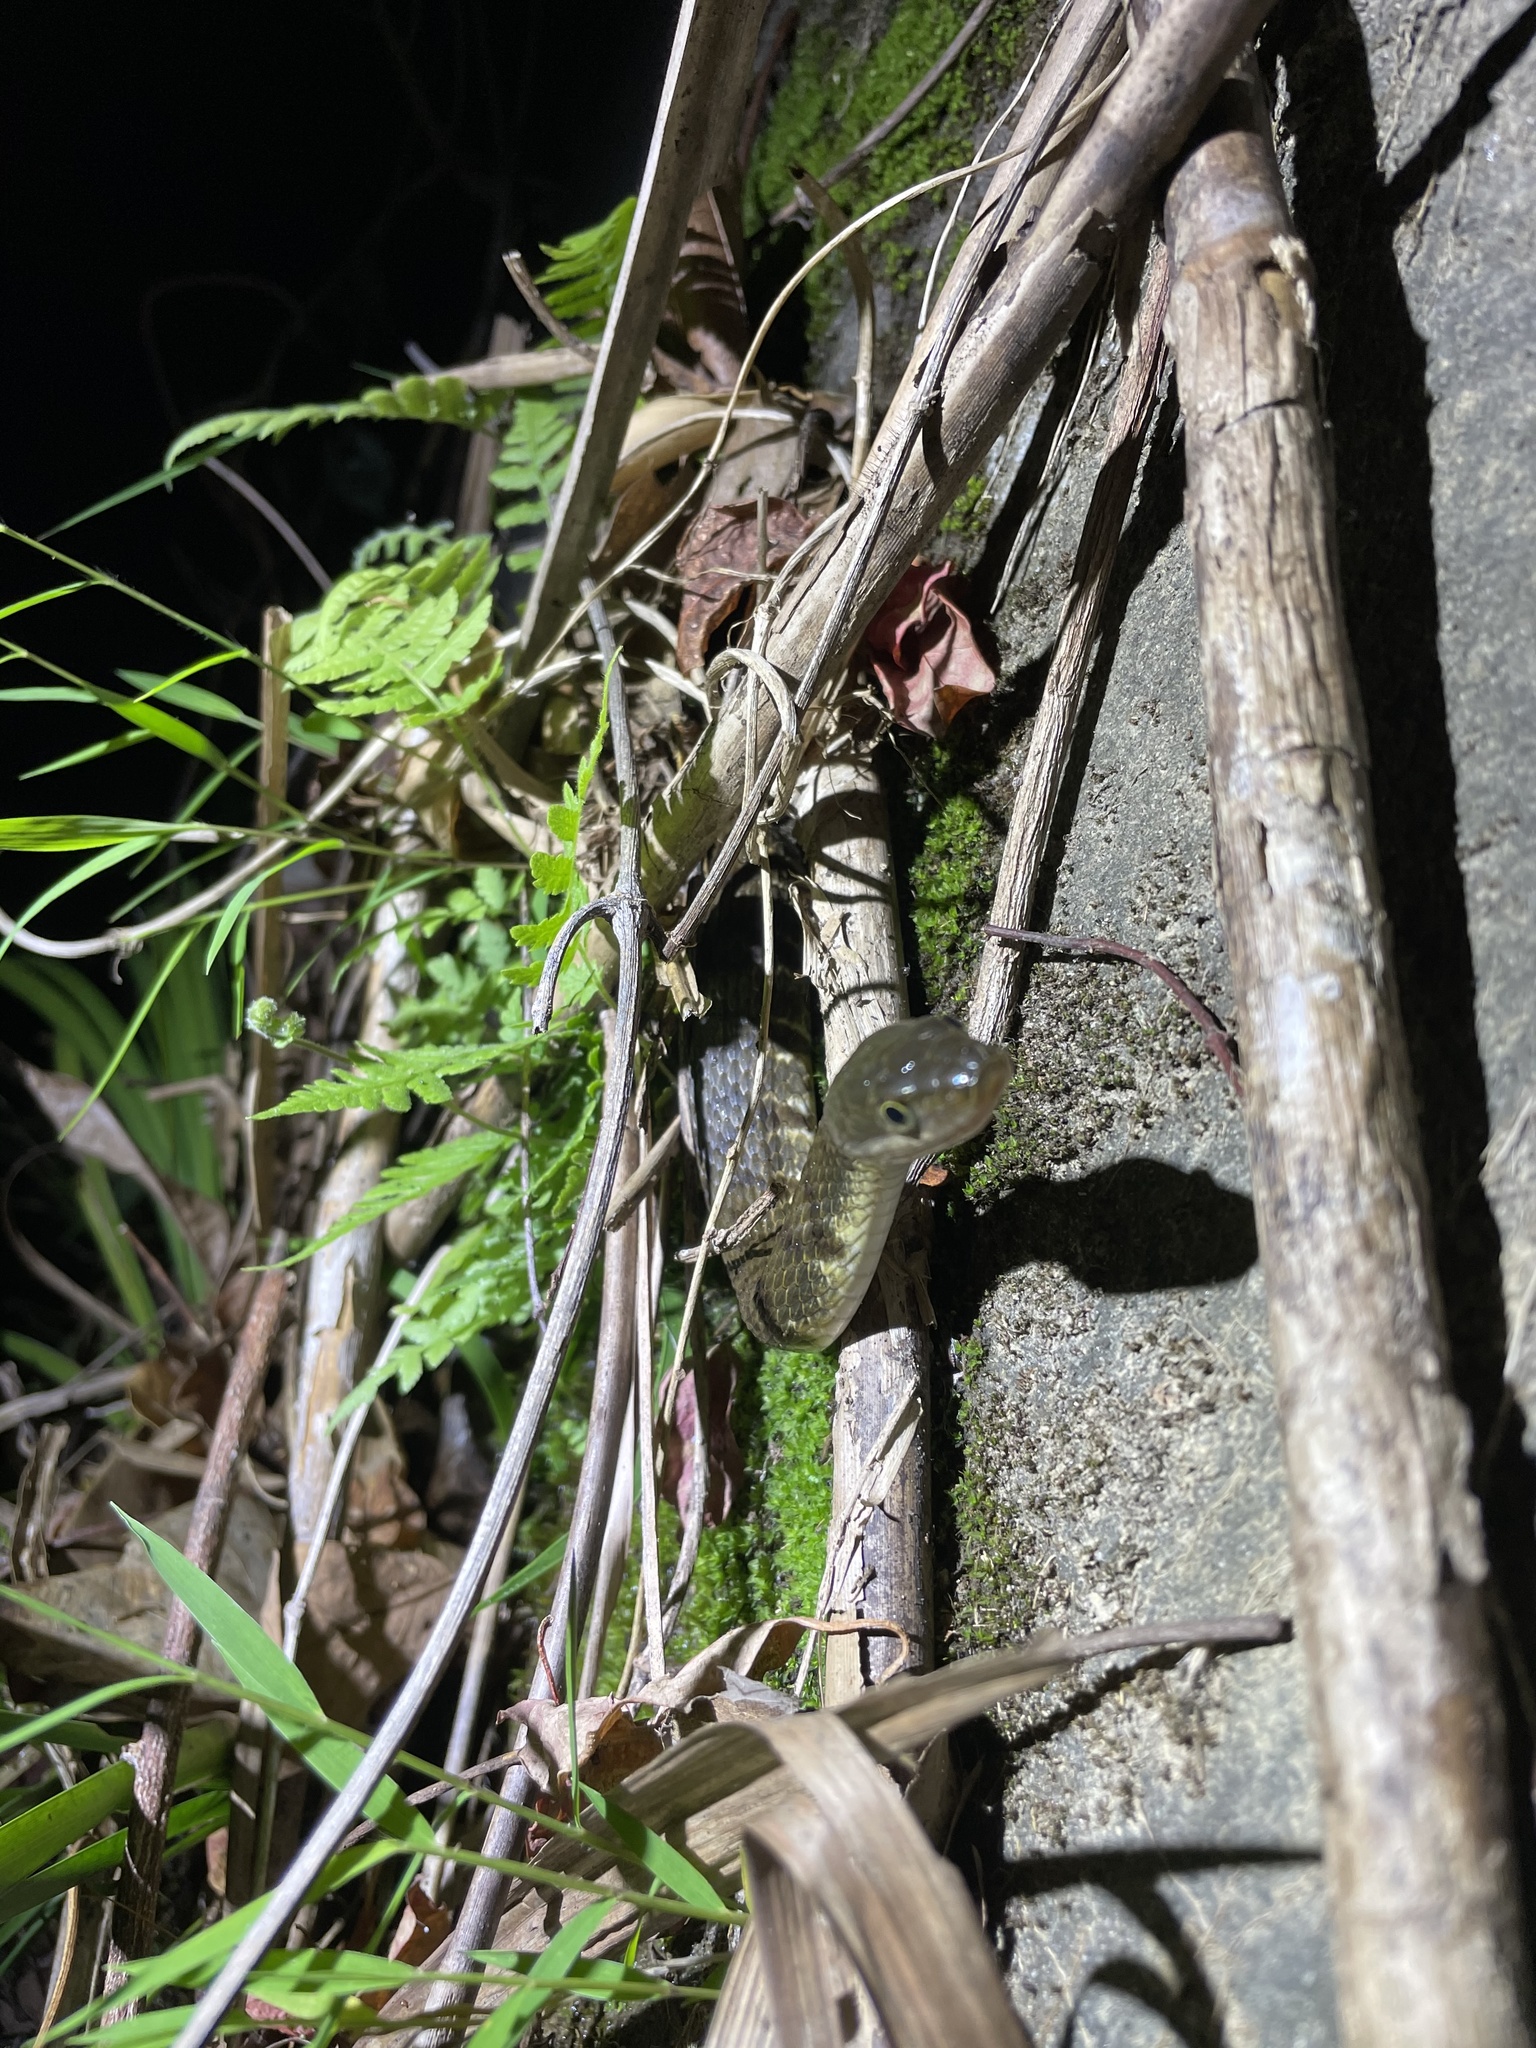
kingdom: Animalia
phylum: Chordata
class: Squamata
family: Colubridae
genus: Trimerodytes
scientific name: Trimerodytes percarinatus
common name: Eastern water snake
